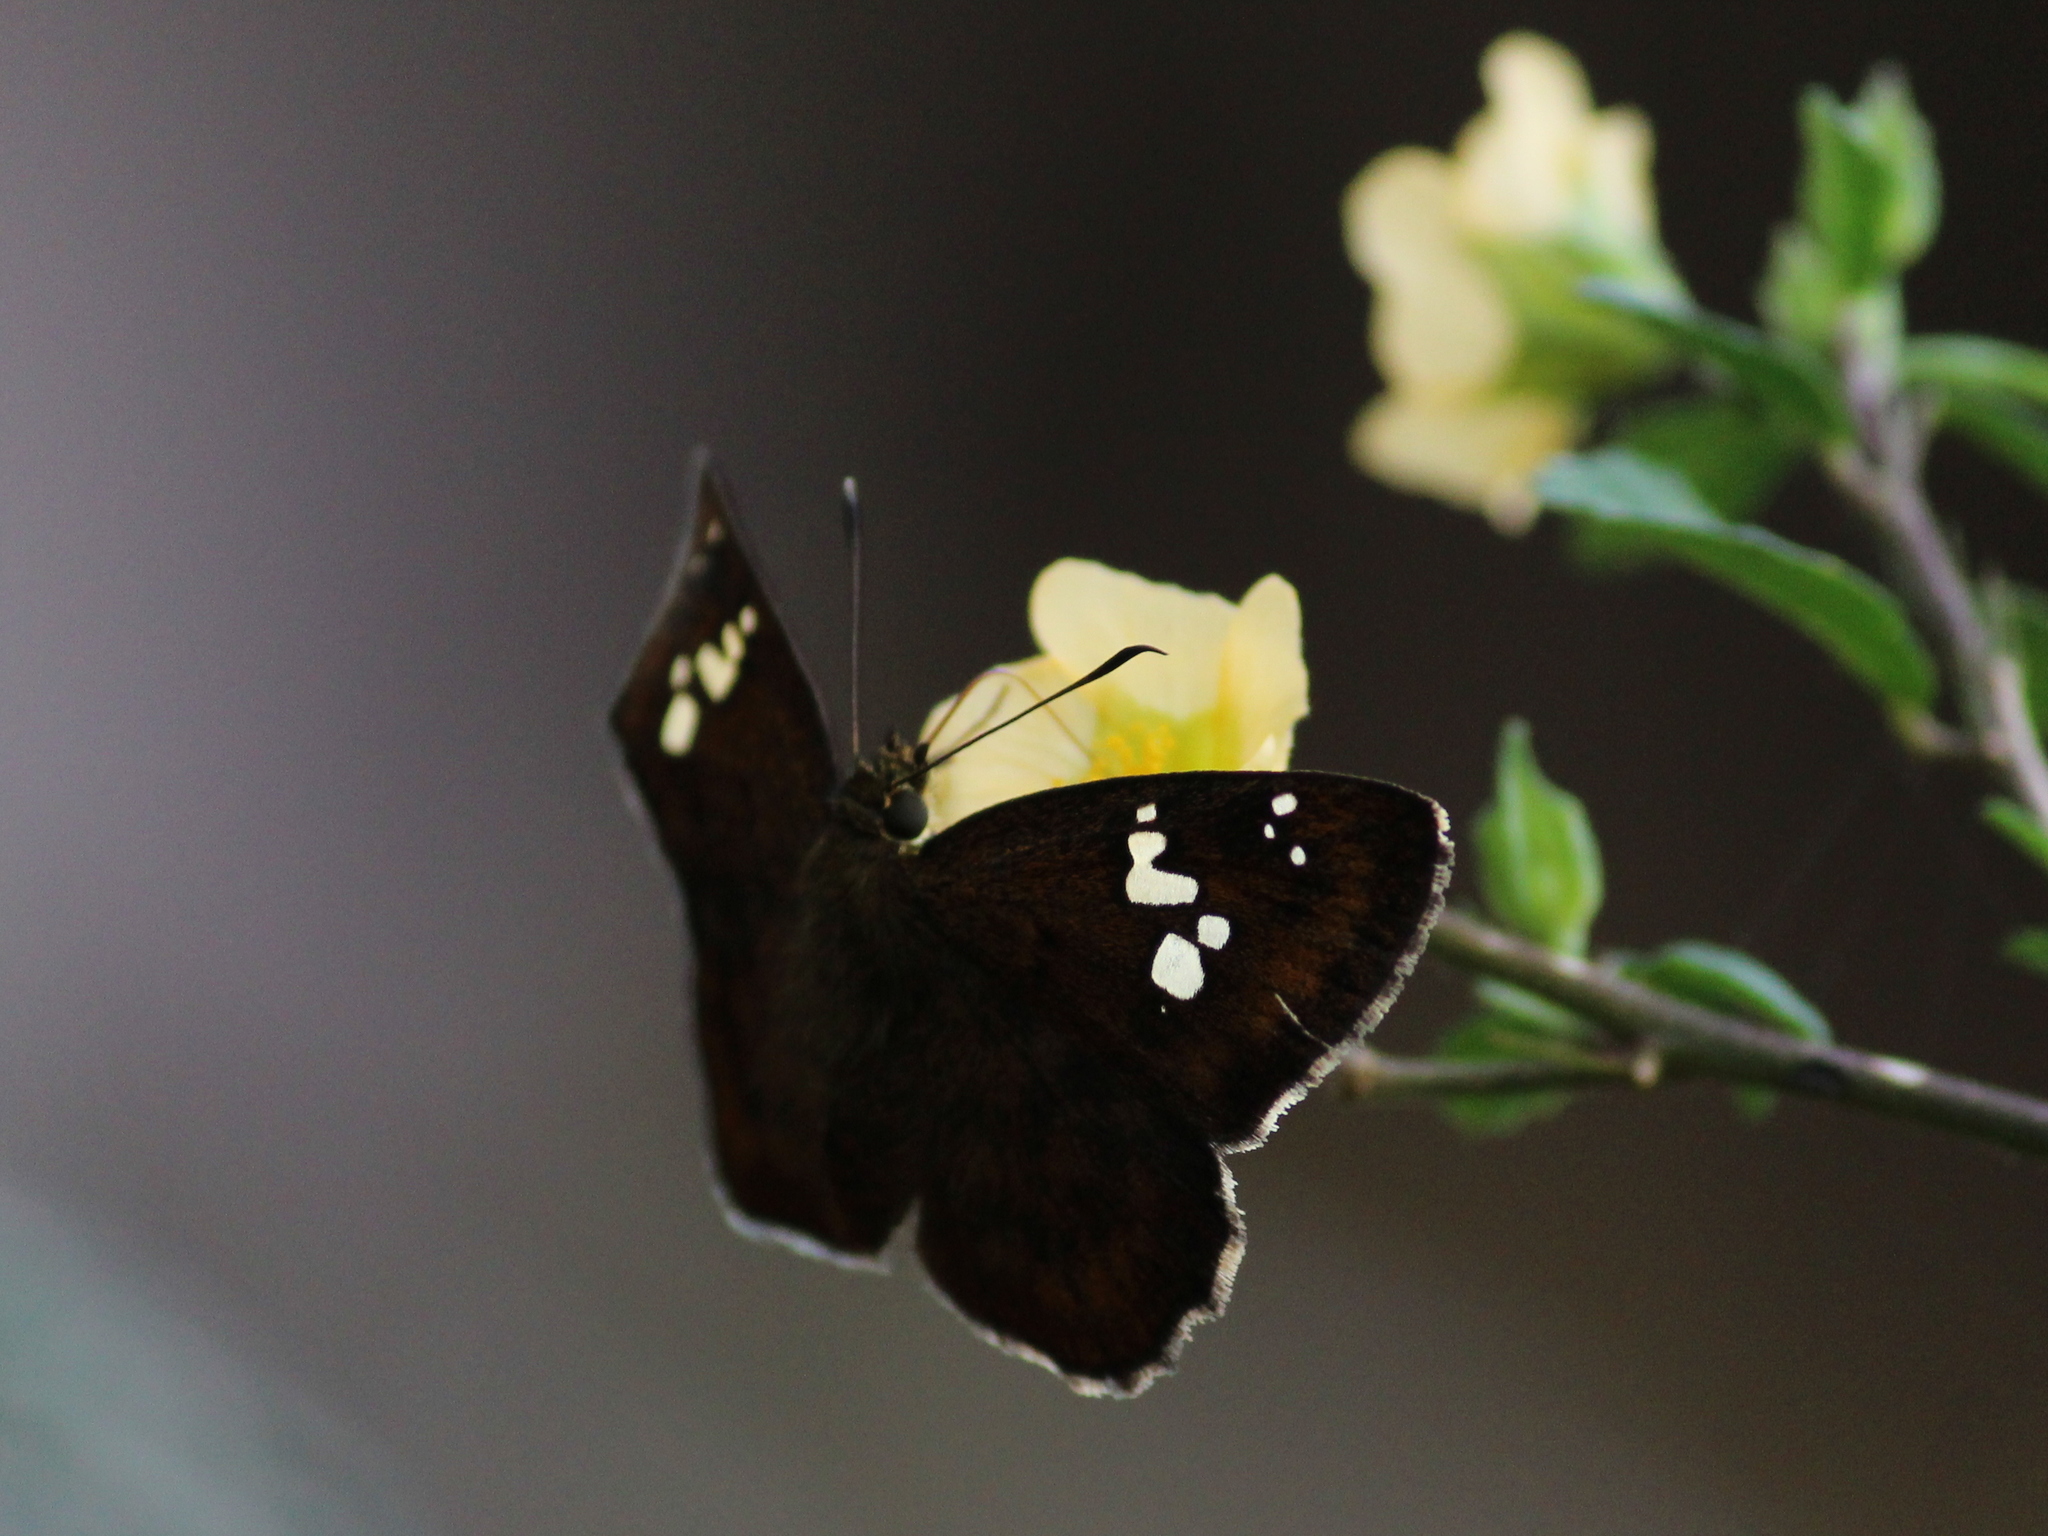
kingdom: Animalia
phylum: Arthropoda
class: Insecta
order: Lepidoptera
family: Hesperiidae
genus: Pseudocoladenia
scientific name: Pseudocoladenia dan
